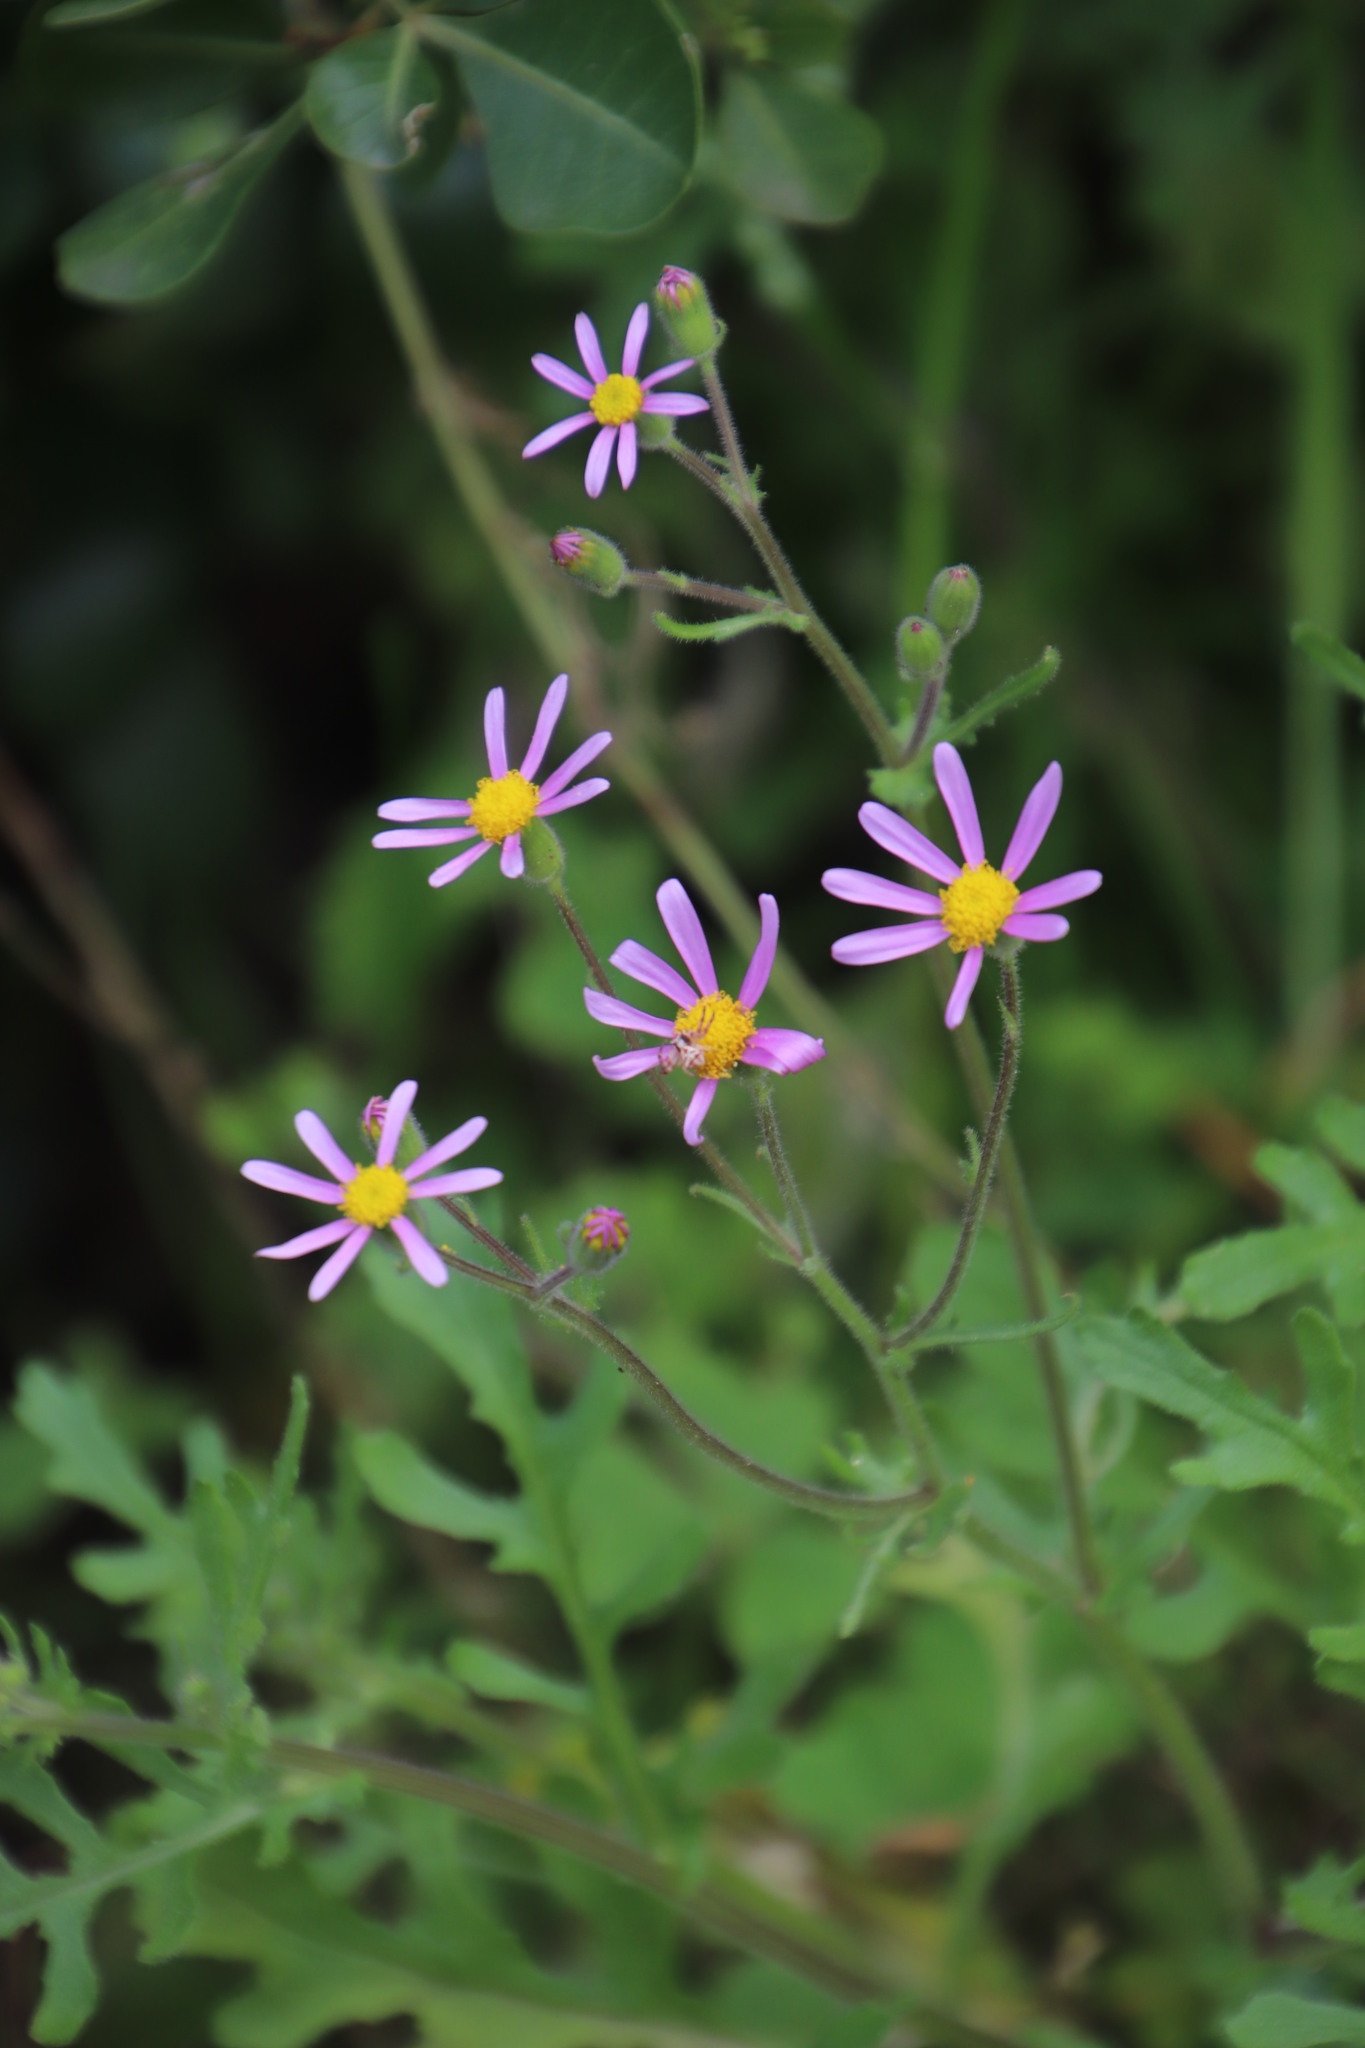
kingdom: Plantae
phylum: Tracheophyta
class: Magnoliopsida
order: Asterales
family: Asteraceae
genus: Senecio
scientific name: Senecio arenarius
